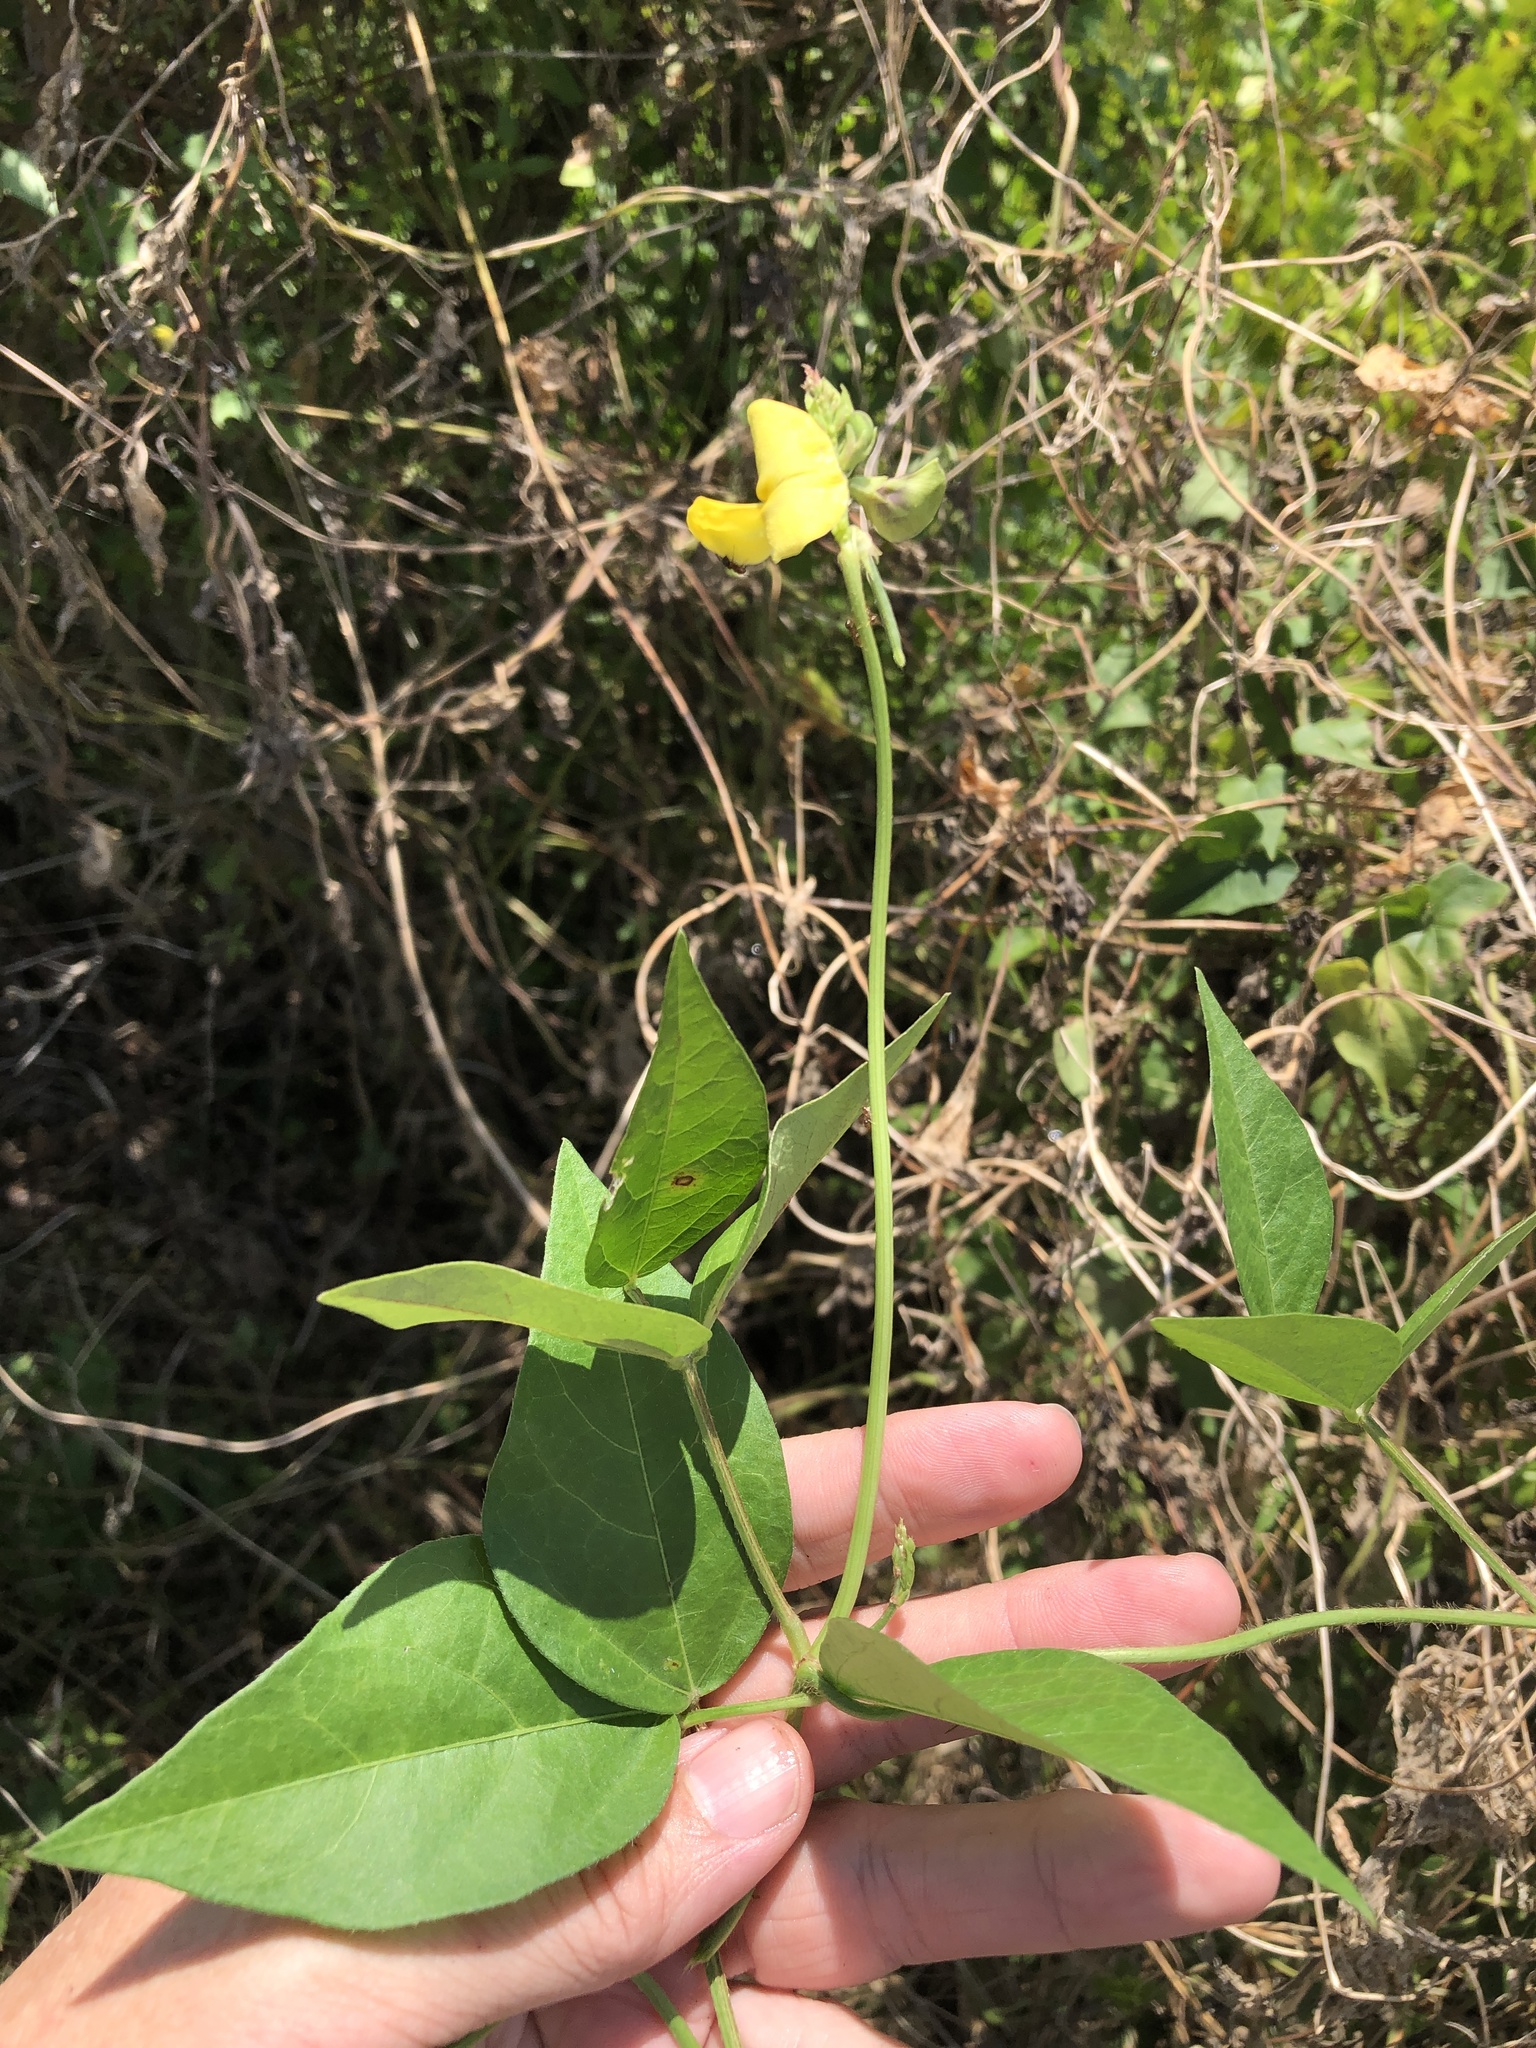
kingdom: Plantae
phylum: Tracheophyta
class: Magnoliopsida
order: Fabales
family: Fabaceae
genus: Vigna
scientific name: Vigna luteola
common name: Hairypod cowpea
